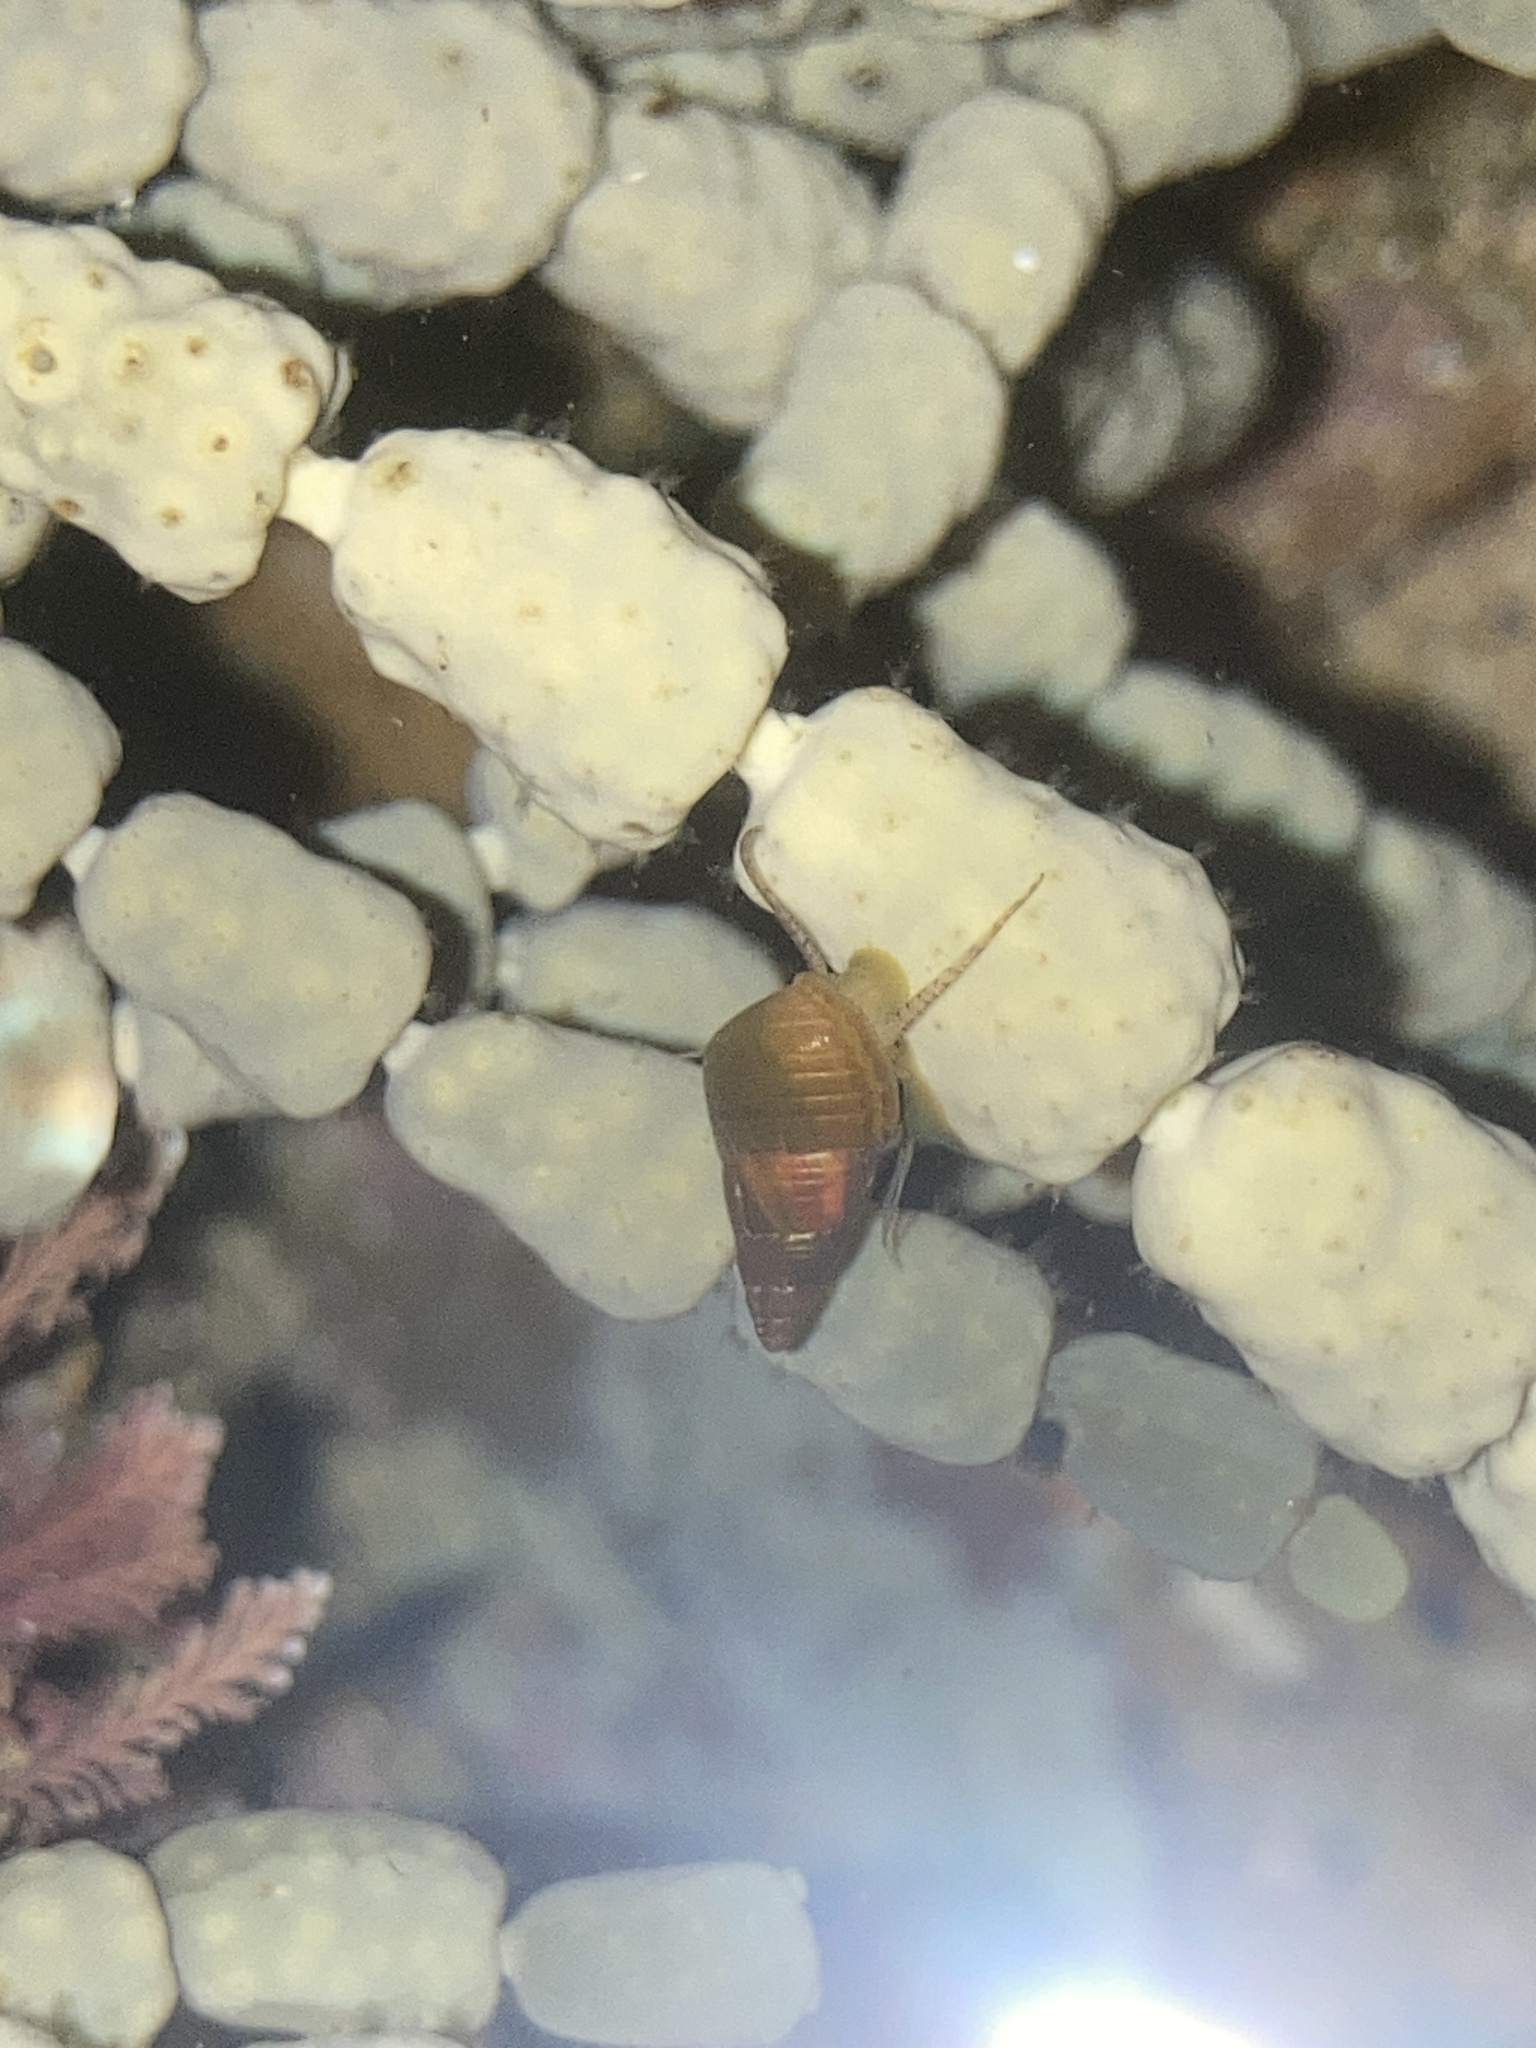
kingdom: Animalia
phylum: Mollusca
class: Gastropoda
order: Trochida
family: Trochidae
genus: Phasianotrochus
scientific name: Phasianotrochus eximius
